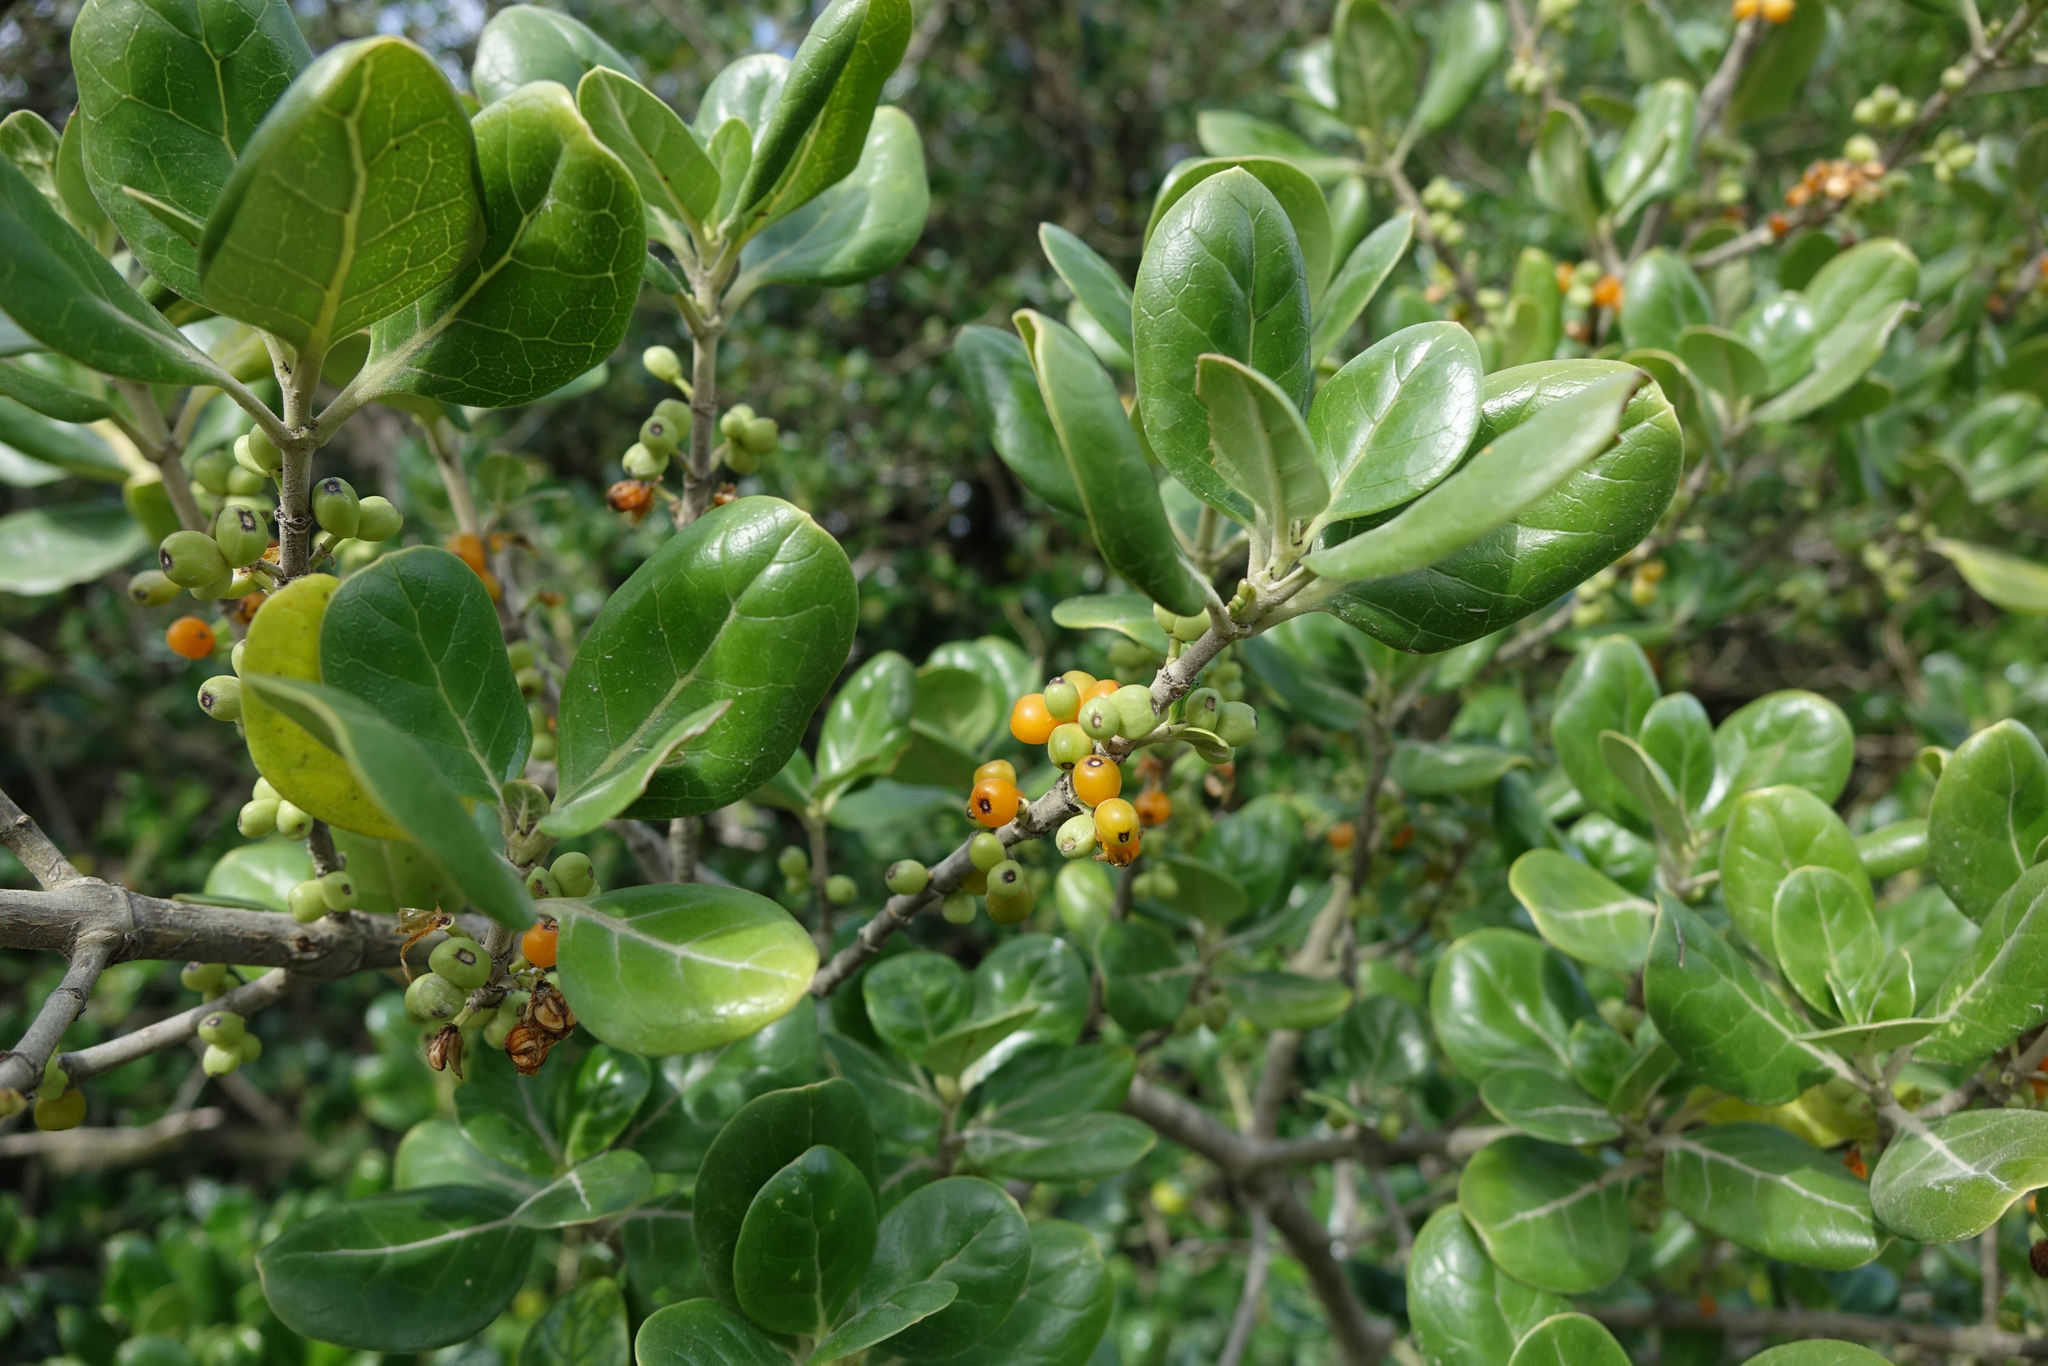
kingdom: Plantae
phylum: Tracheophyta
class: Magnoliopsida
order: Gentianales
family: Rubiaceae
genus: Coprosma
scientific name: Coprosma repens
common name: Tree bedstraw
